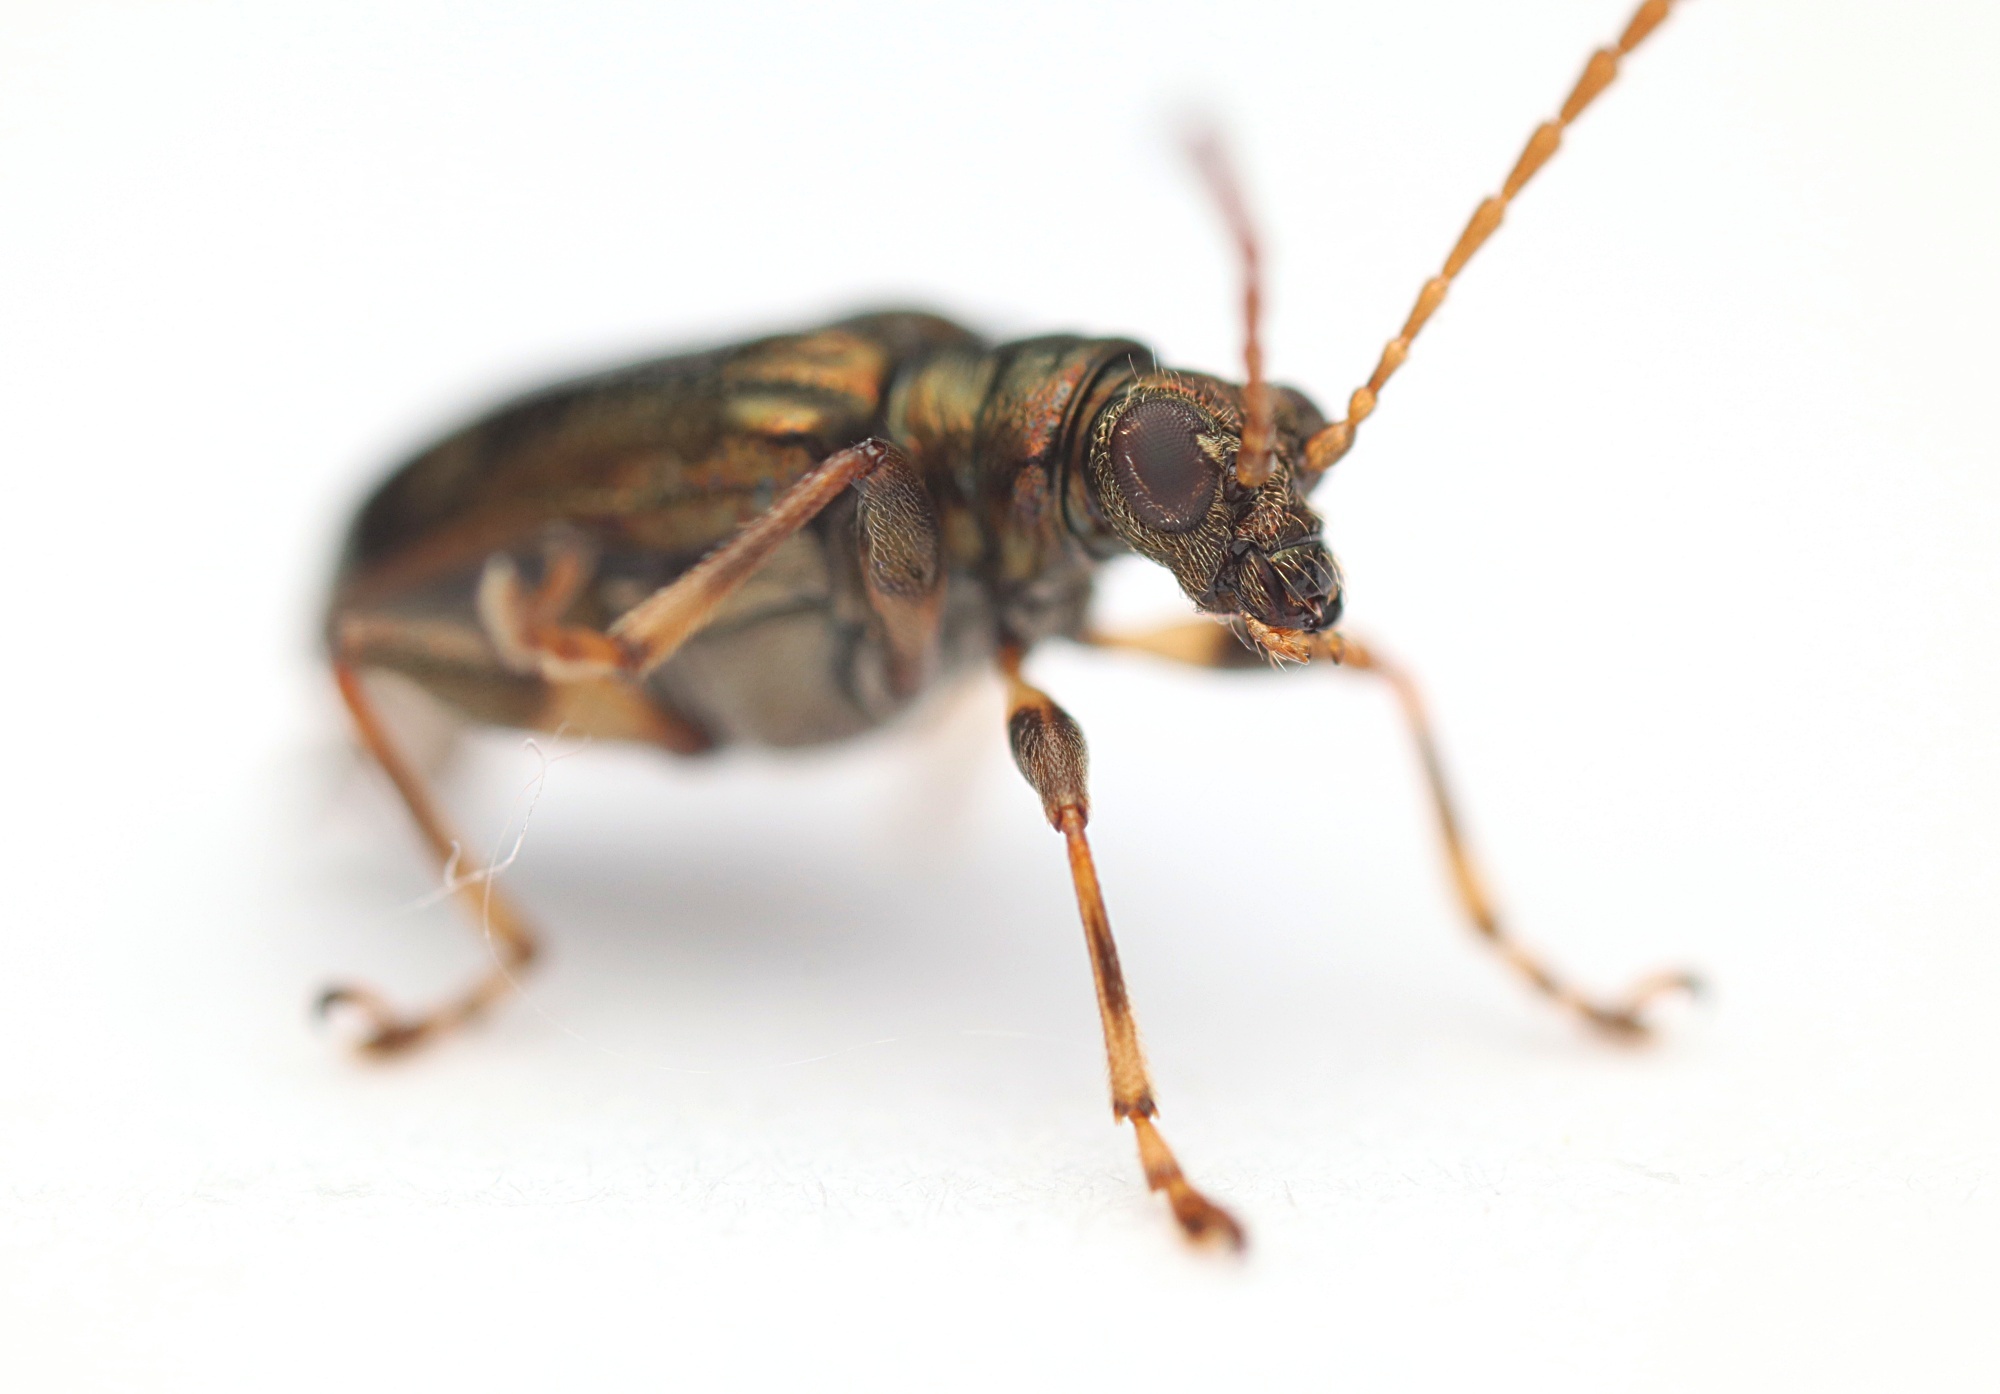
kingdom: Animalia
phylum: Arthropoda
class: Insecta
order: Coleoptera
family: Chrysomelidae
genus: Neolema
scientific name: Neolema ogloblini
